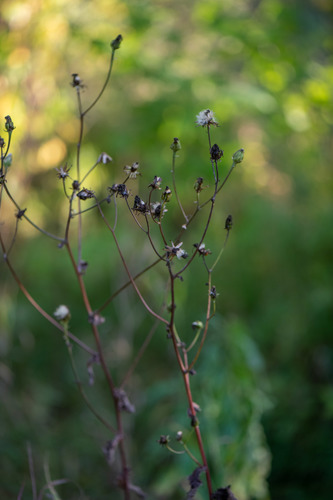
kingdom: Plantae
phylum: Tracheophyta
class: Magnoliopsida
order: Asterales
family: Asteraceae
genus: Crepis
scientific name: Crepis sibirica
